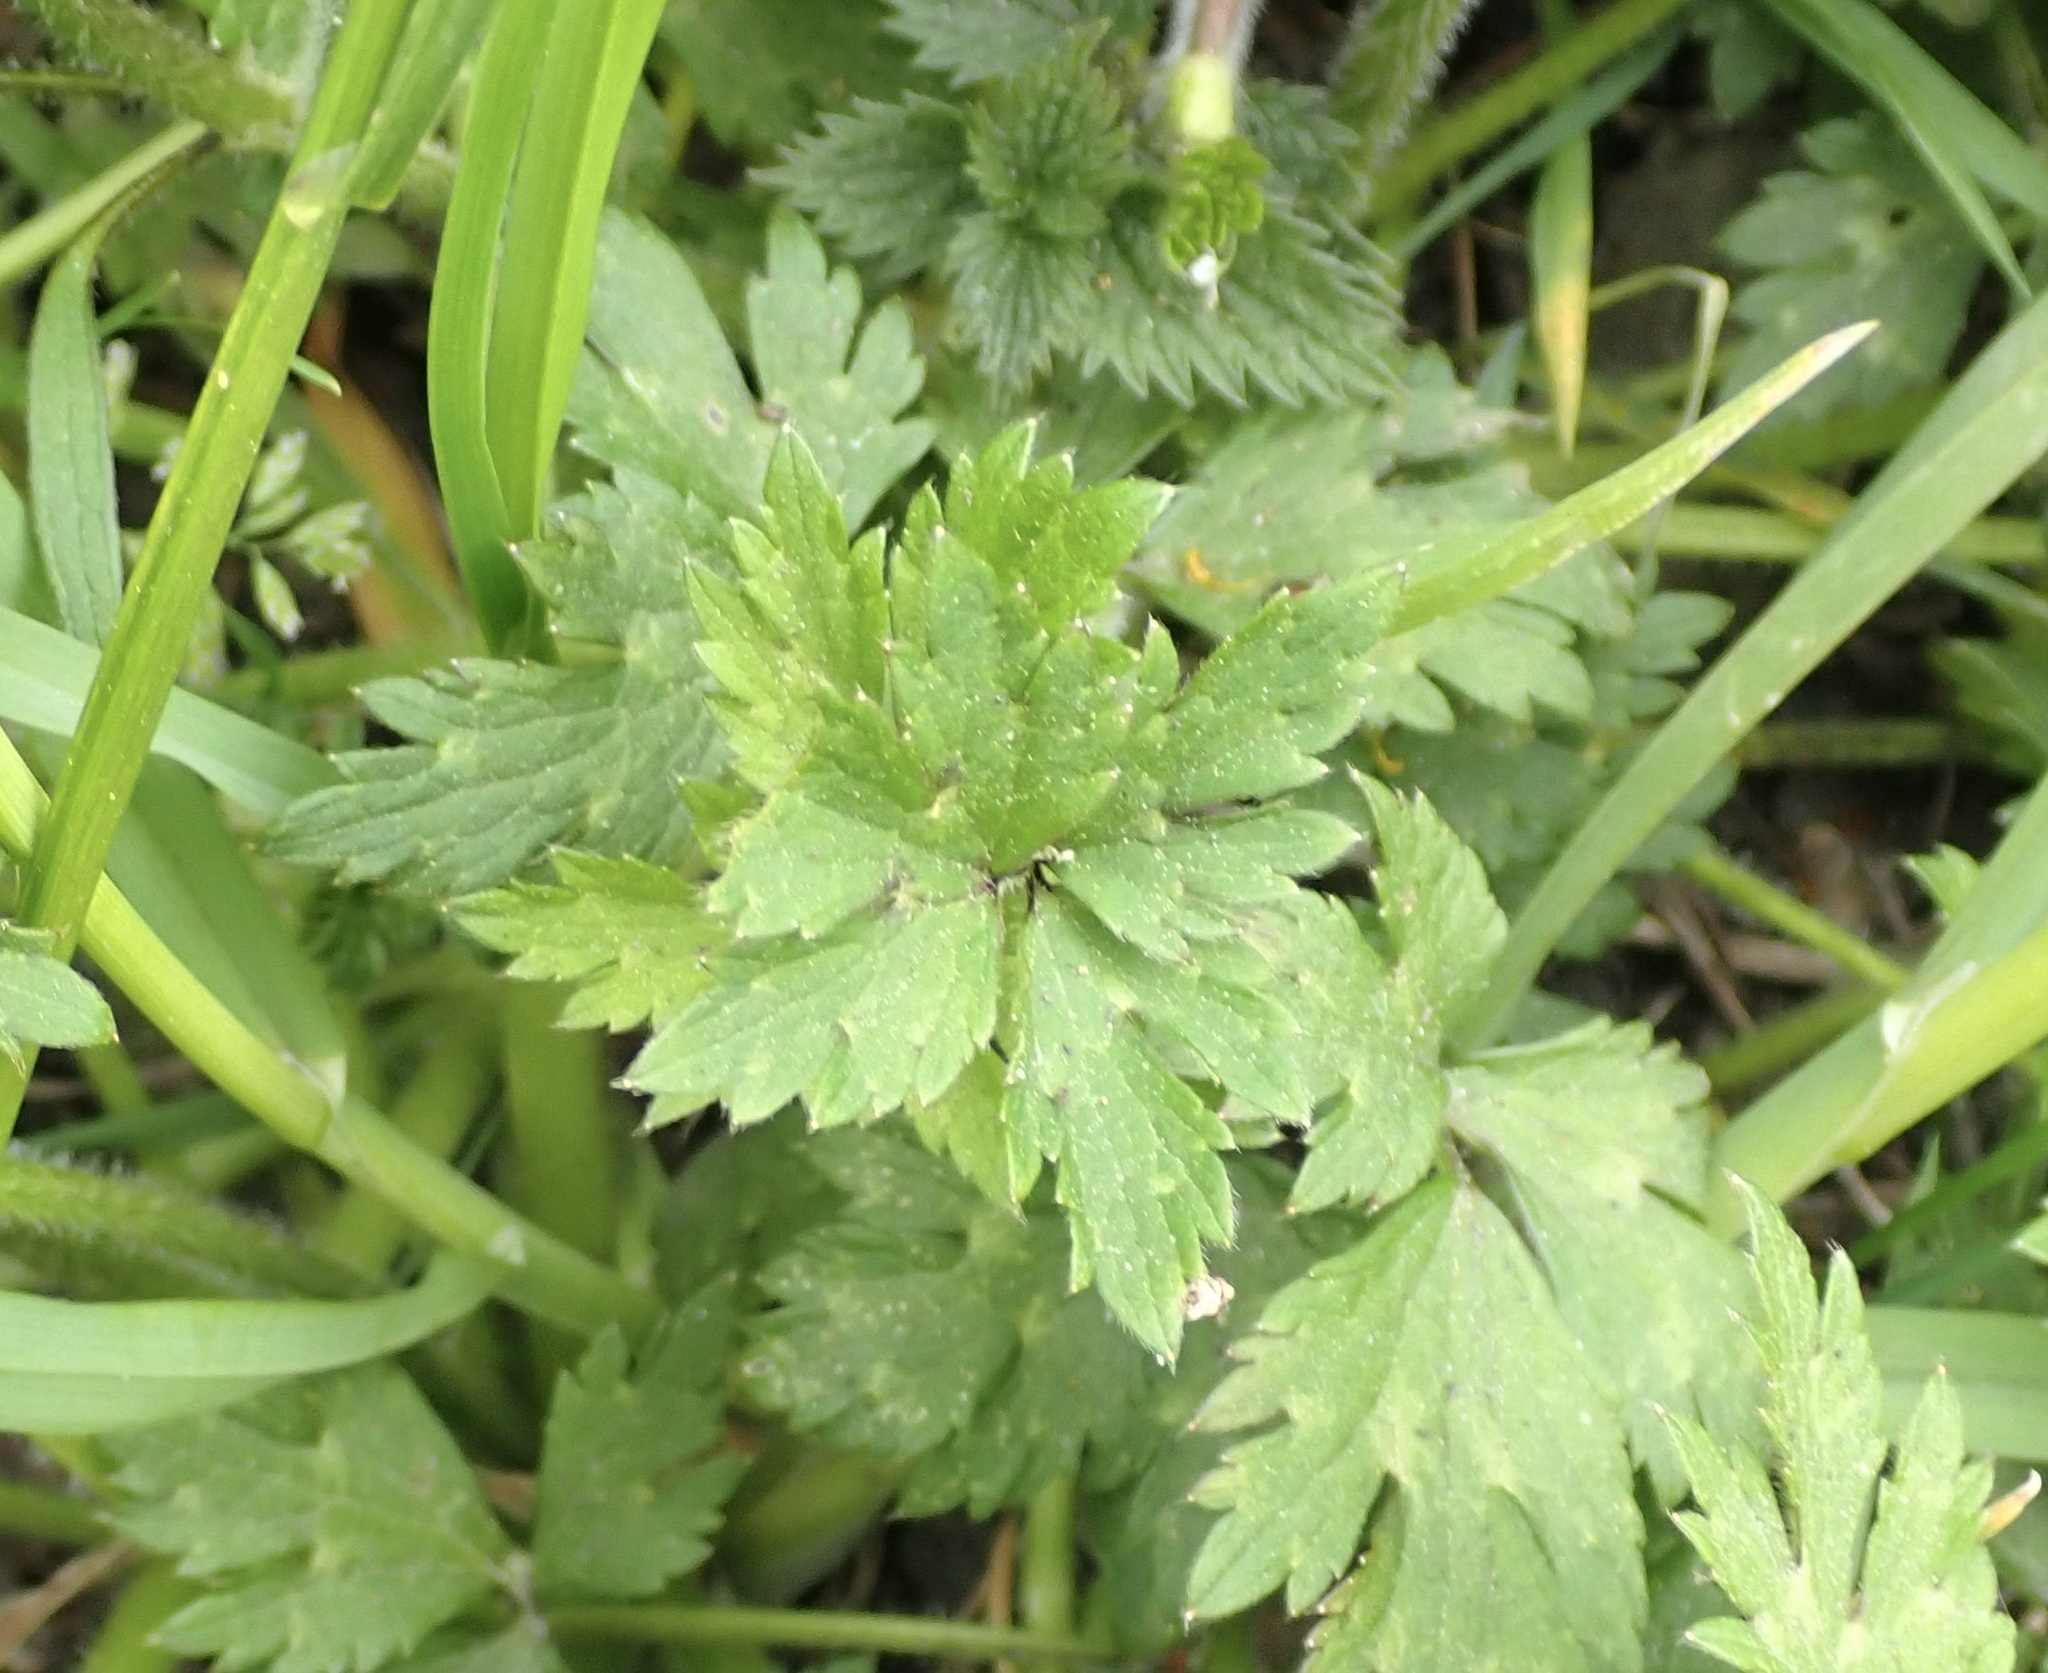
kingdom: Plantae
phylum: Tracheophyta
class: Magnoliopsida
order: Ranunculales
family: Ranunculaceae
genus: Ranunculus
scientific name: Ranunculus repens
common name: Creeping buttercup
